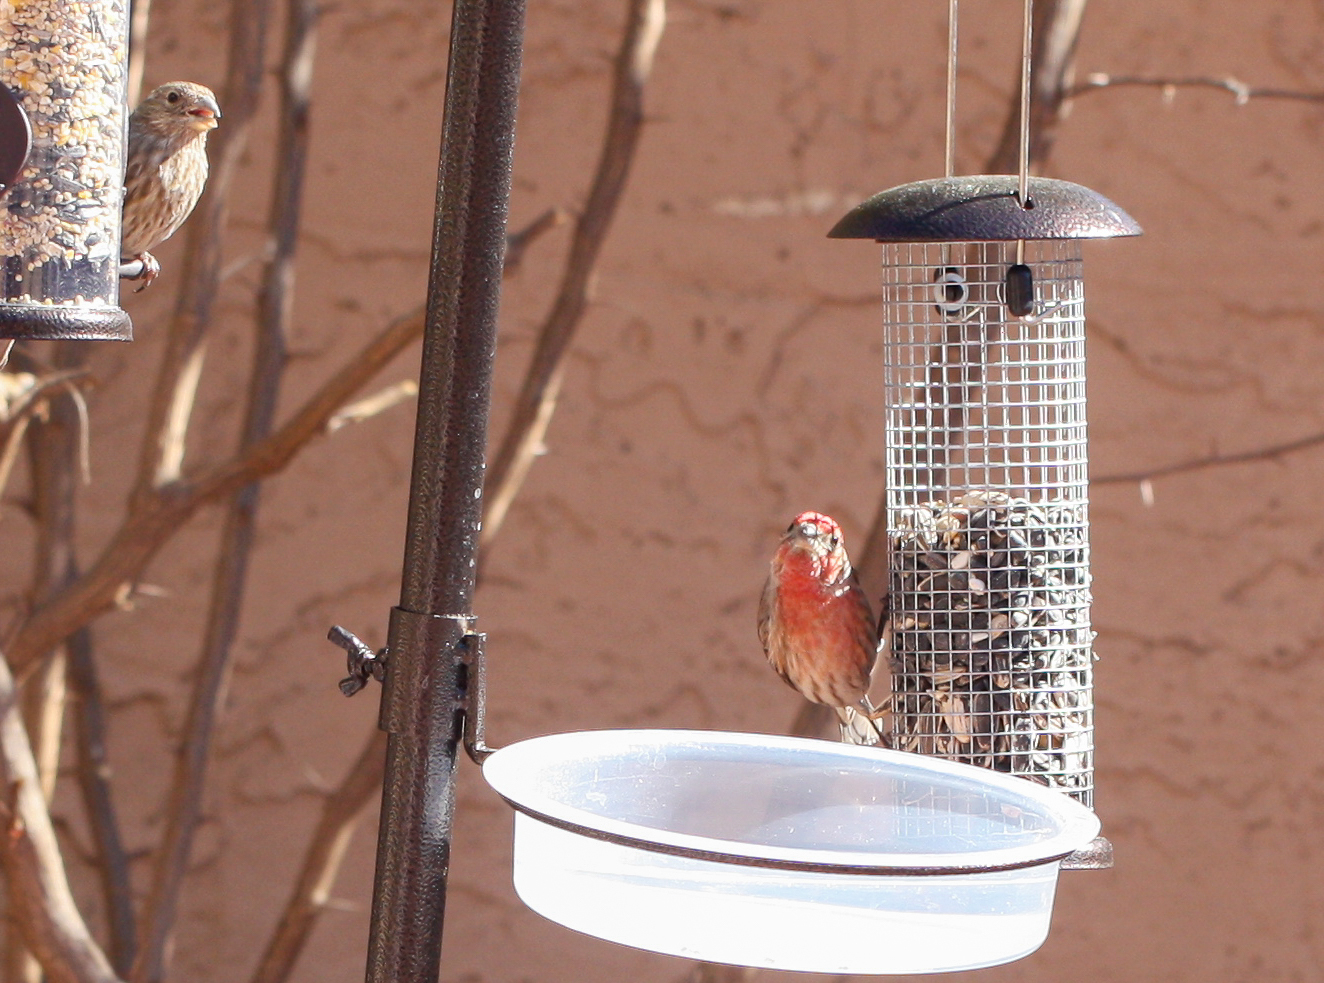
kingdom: Animalia
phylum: Chordata
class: Aves
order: Passeriformes
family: Fringillidae
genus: Haemorhous
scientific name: Haemorhous mexicanus
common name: House finch
